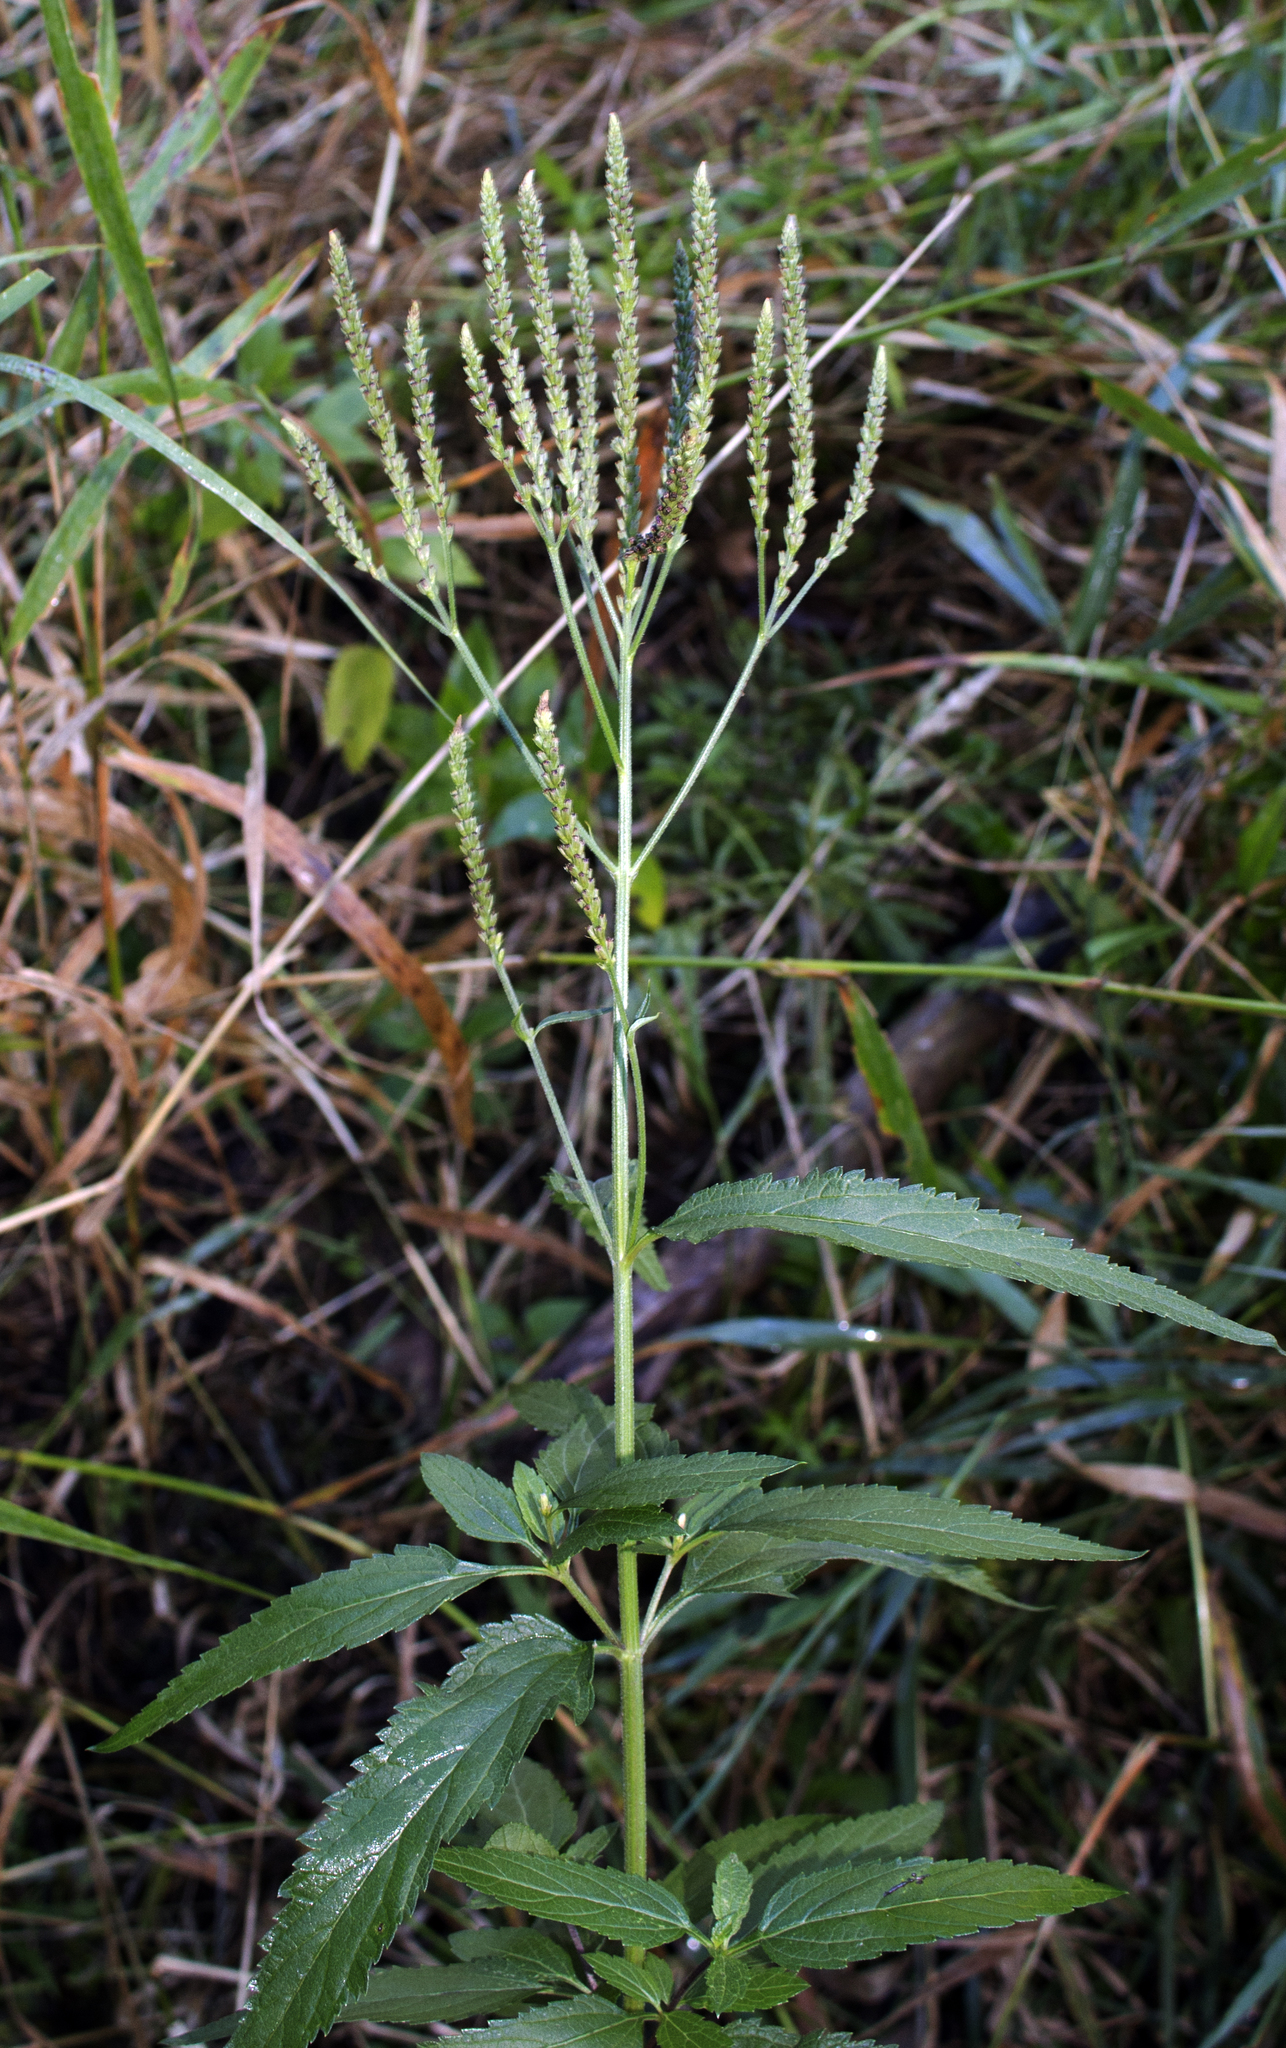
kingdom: Plantae
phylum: Tracheophyta
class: Magnoliopsida
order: Lamiales
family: Verbenaceae
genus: Verbena
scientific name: Verbena hastata
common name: American blue vervain
